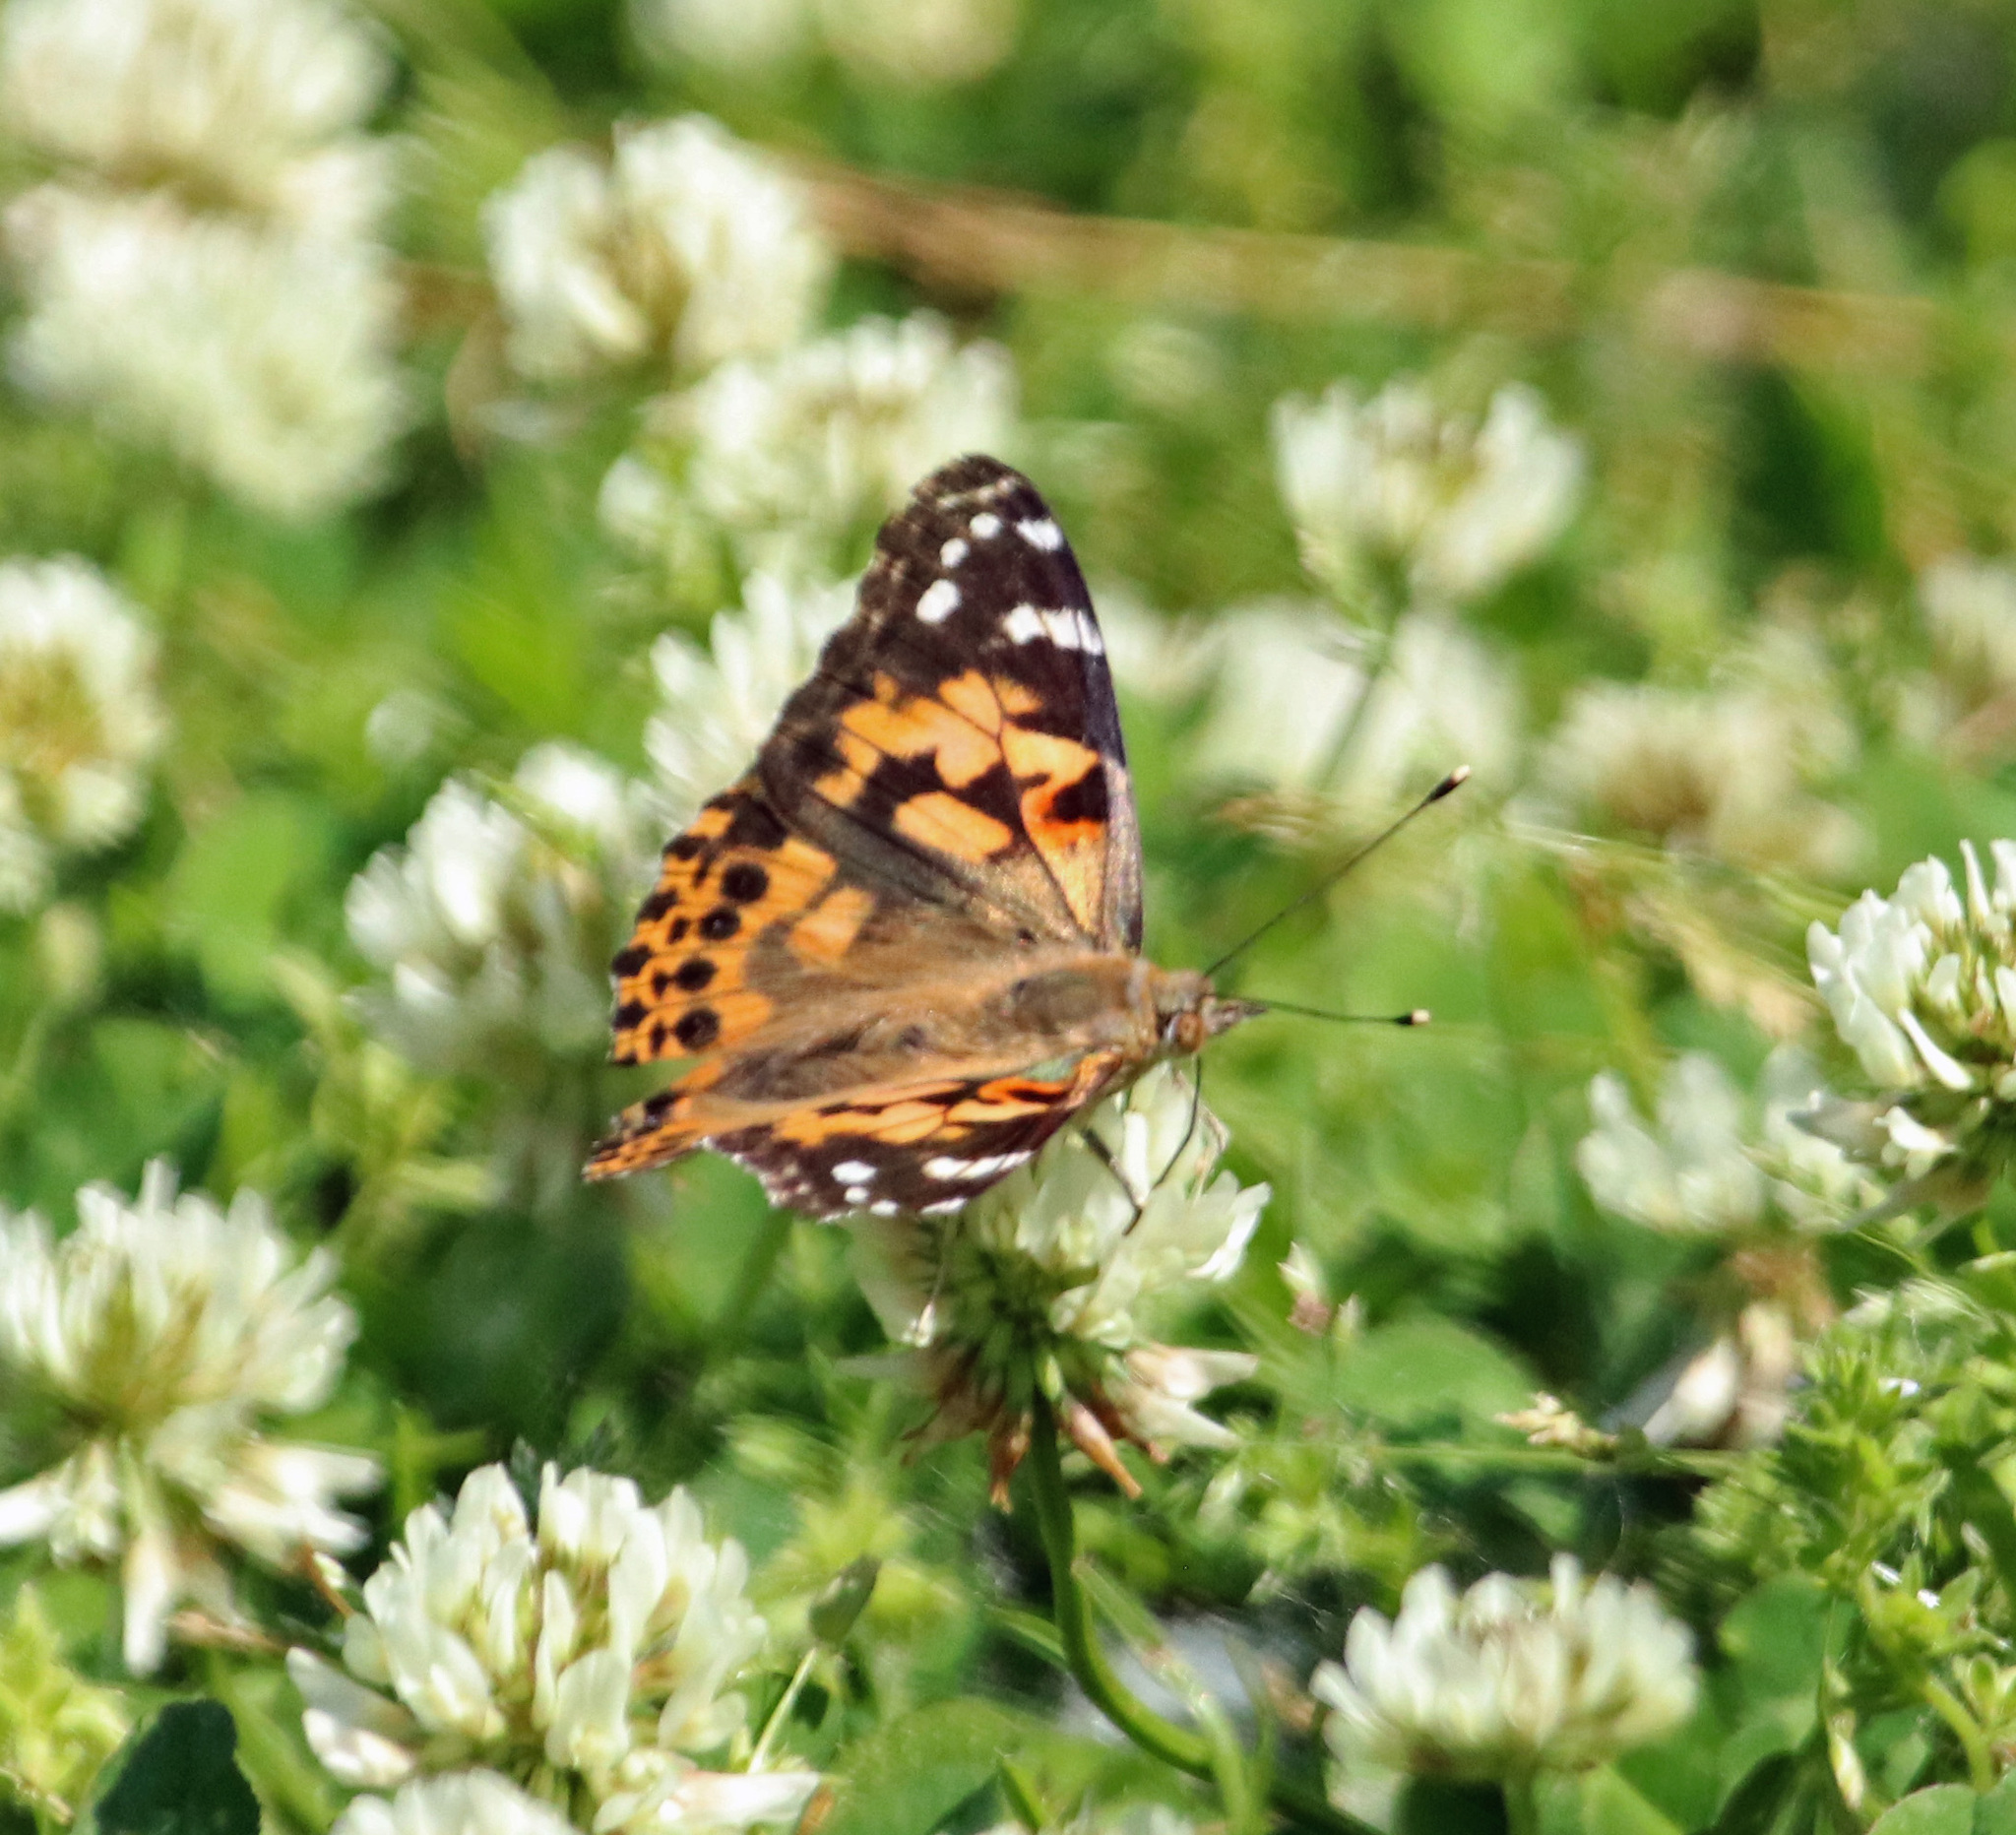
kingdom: Animalia
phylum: Arthropoda
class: Insecta
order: Lepidoptera
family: Nymphalidae
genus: Vanessa
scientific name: Vanessa cardui
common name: Painted lady
